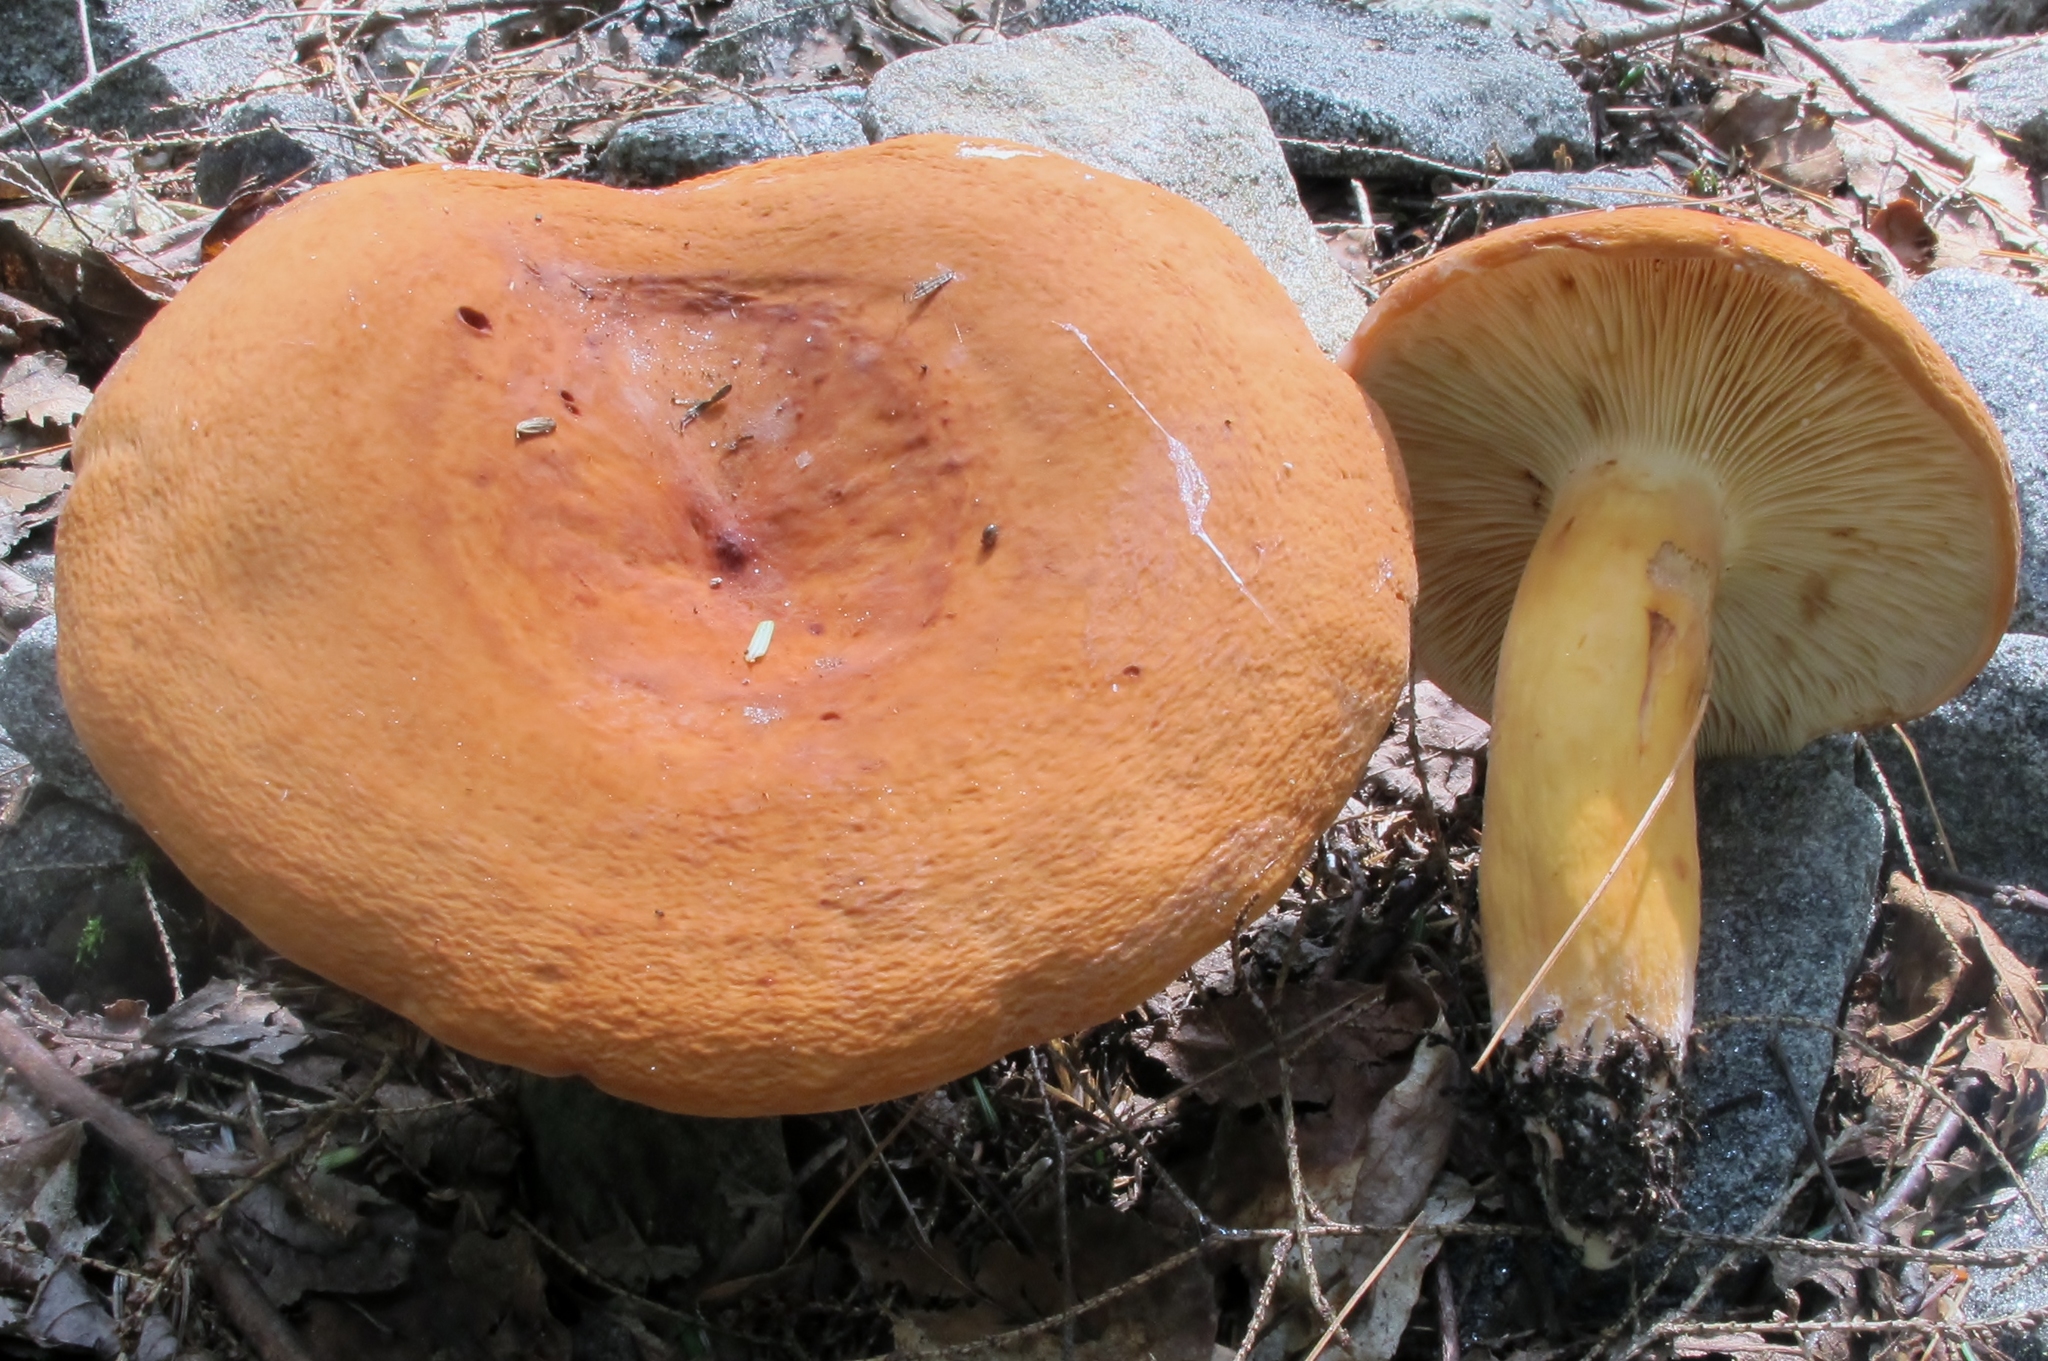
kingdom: Fungi
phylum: Basidiomycota
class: Agaricomycetes
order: Russulales
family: Russulaceae
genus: Lactifluus
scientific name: Lactifluus volemus
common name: Fishy milkcap
